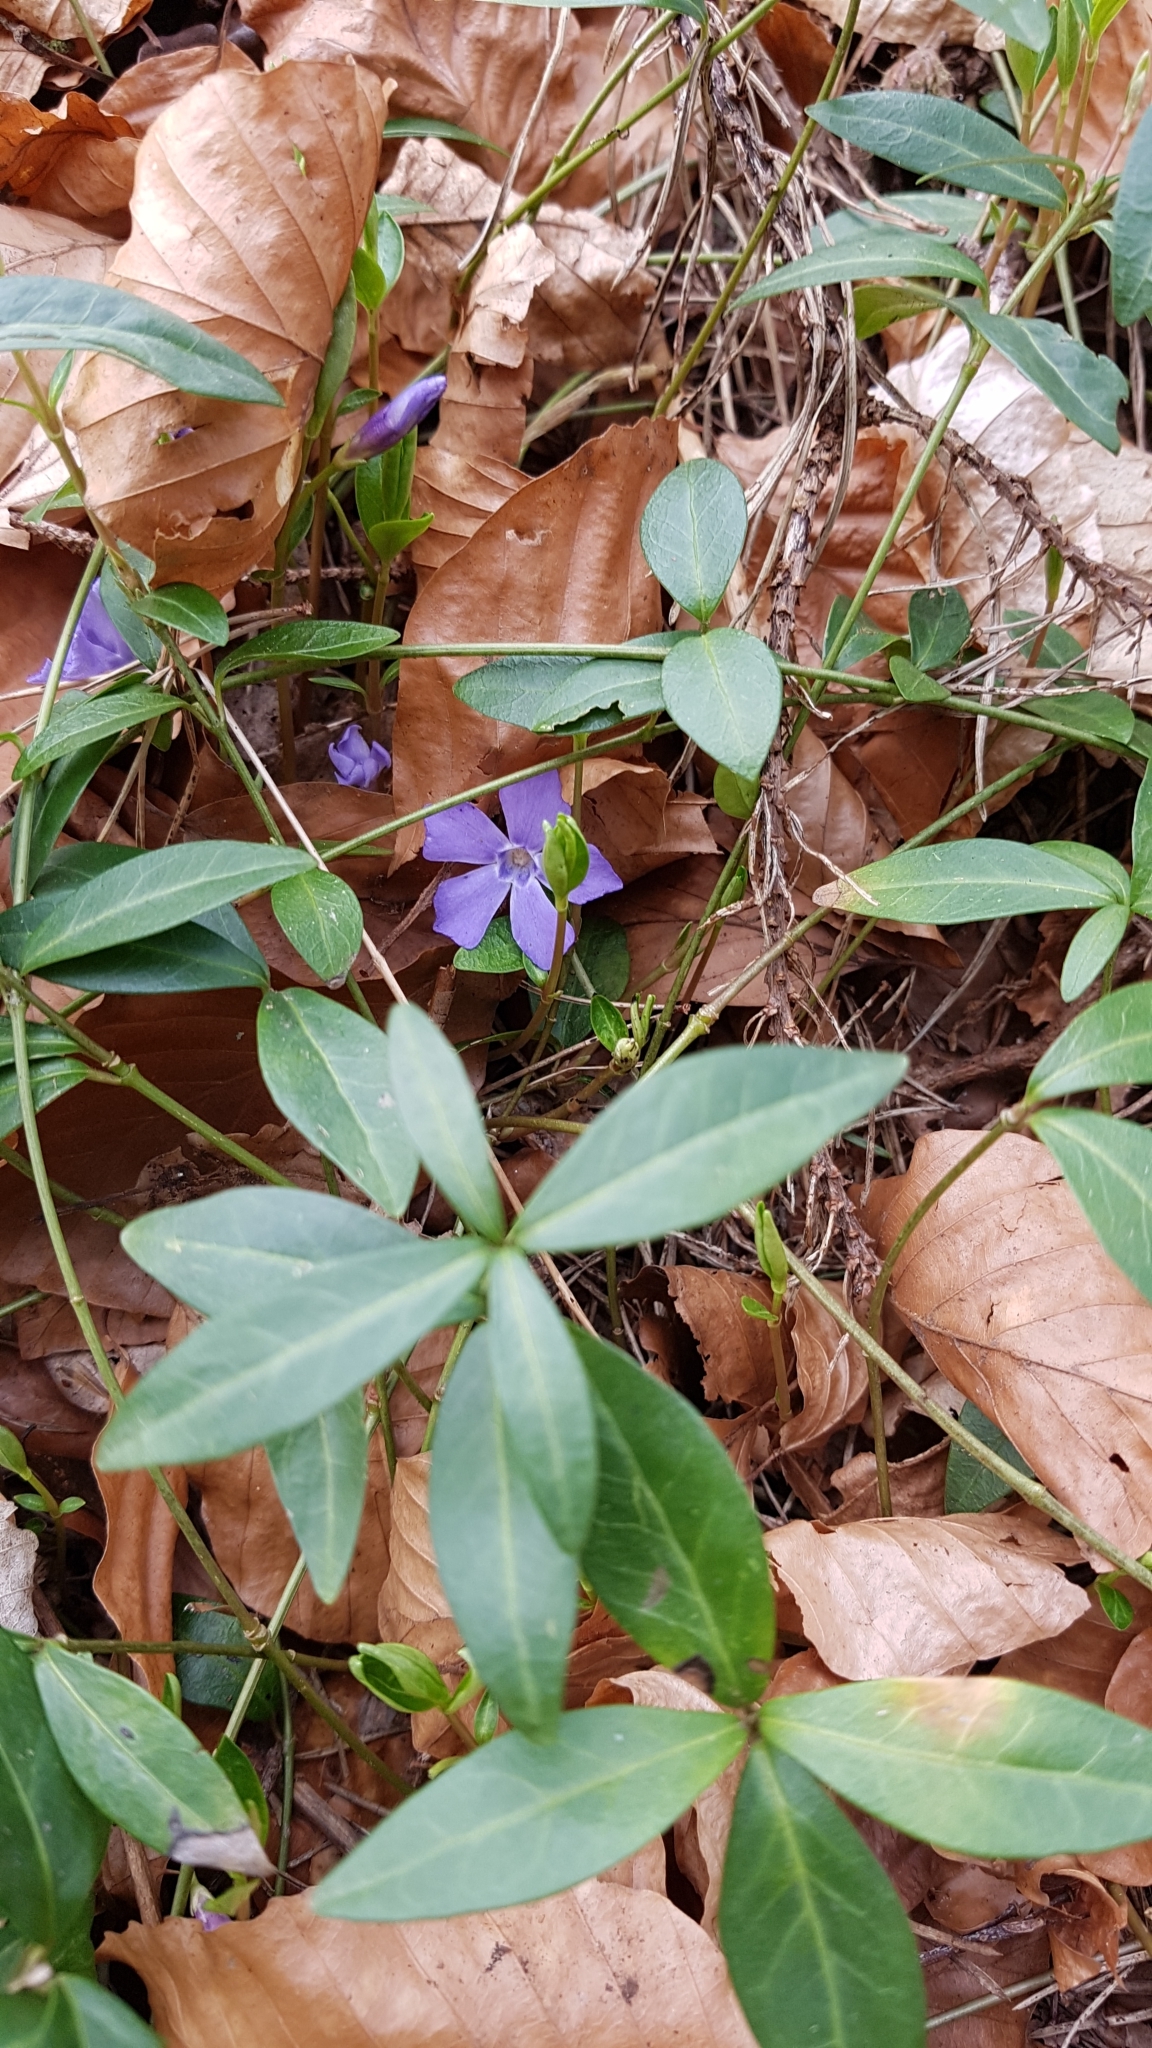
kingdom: Plantae
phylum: Tracheophyta
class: Magnoliopsida
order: Gentianales
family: Apocynaceae
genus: Vinca
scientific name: Vinca minor
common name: Lesser periwinkle
